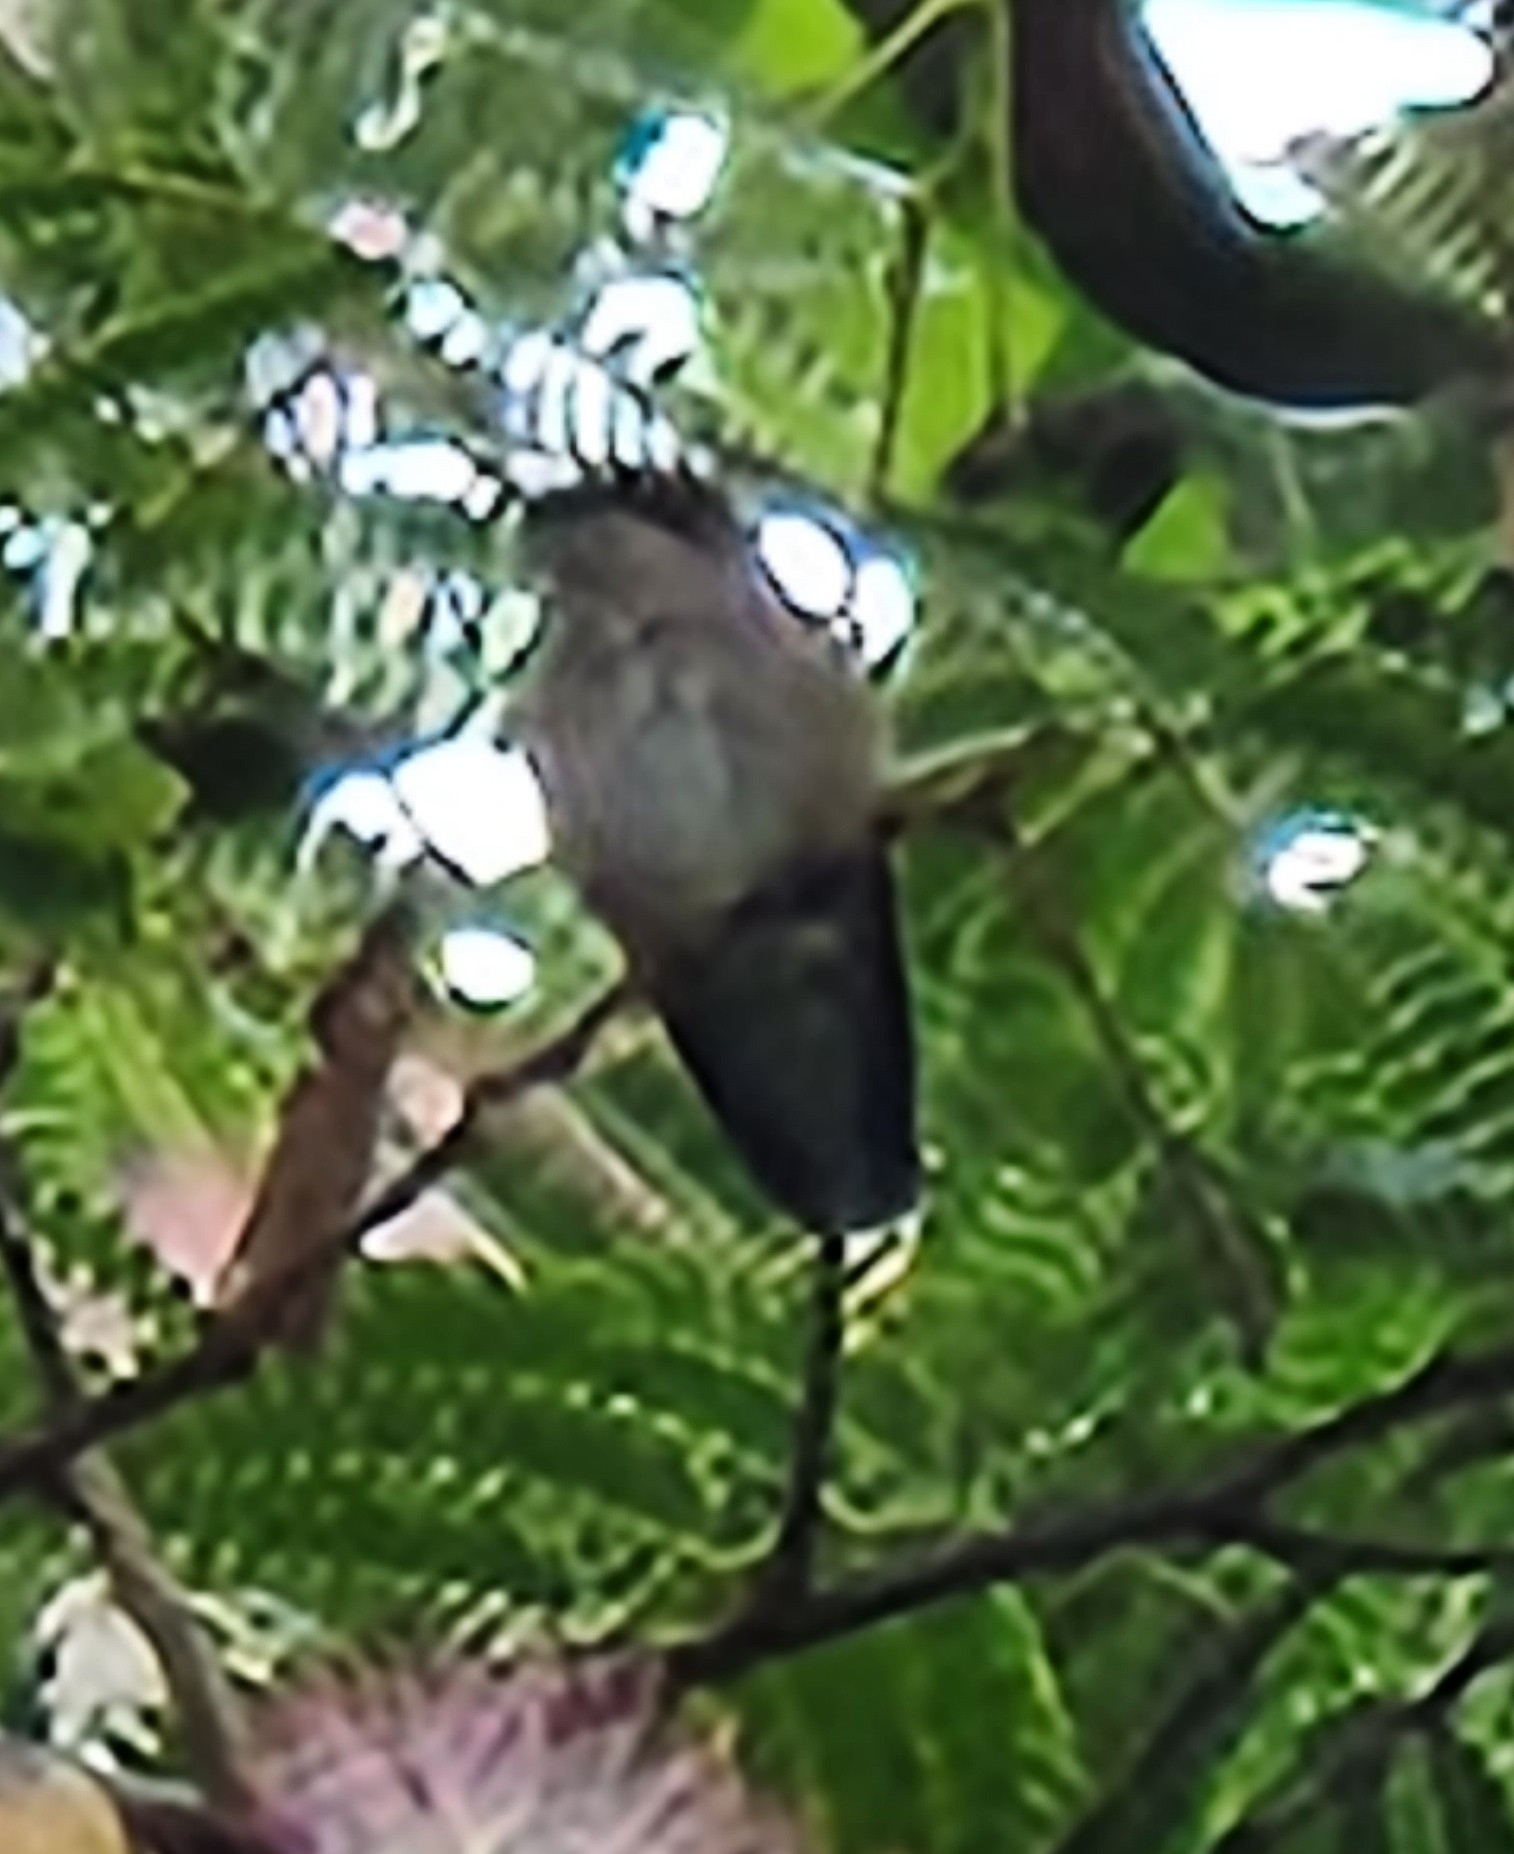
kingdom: Animalia
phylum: Chordata
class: Aves
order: Apodiformes
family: Trochilidae
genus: Archilochus
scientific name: Archilochus colubris
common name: Ruby-throated hummingbird
